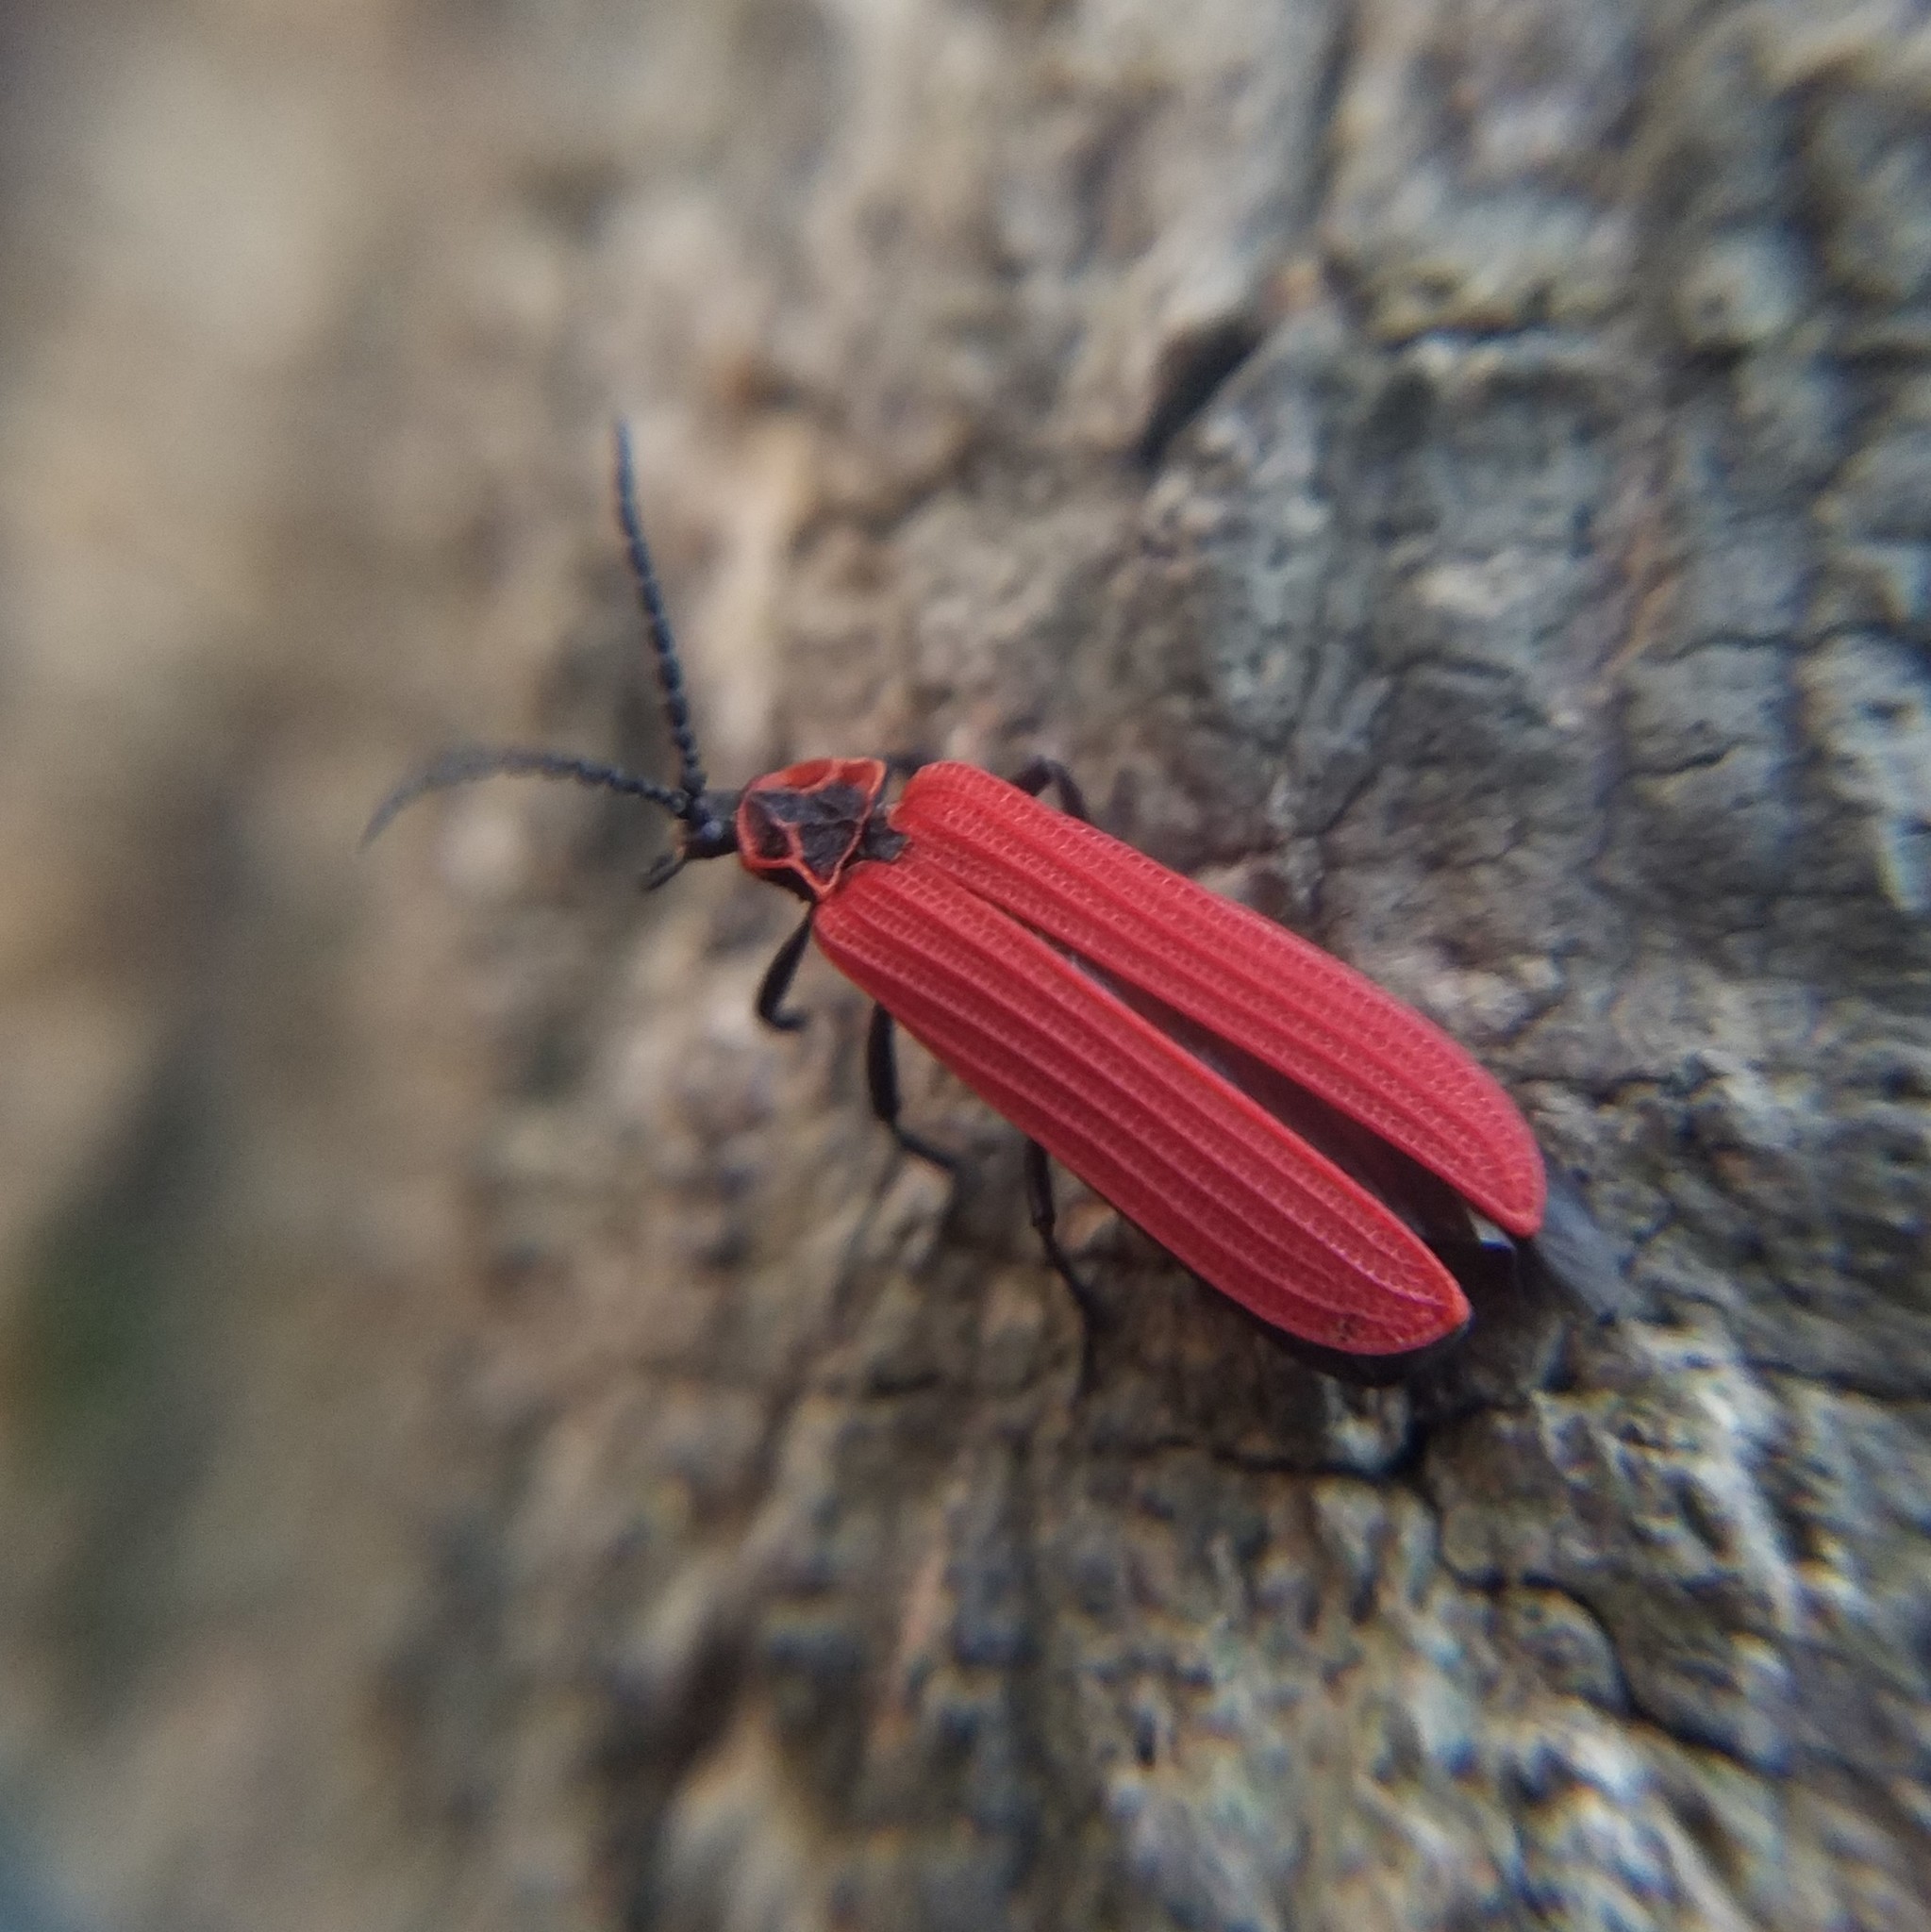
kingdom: Animalia
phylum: Arthropoda
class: Insecta
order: Coleoptera
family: Lycidae
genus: Dictyoptera
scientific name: Dictyoptera aurora
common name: Golden net-winged beetle
